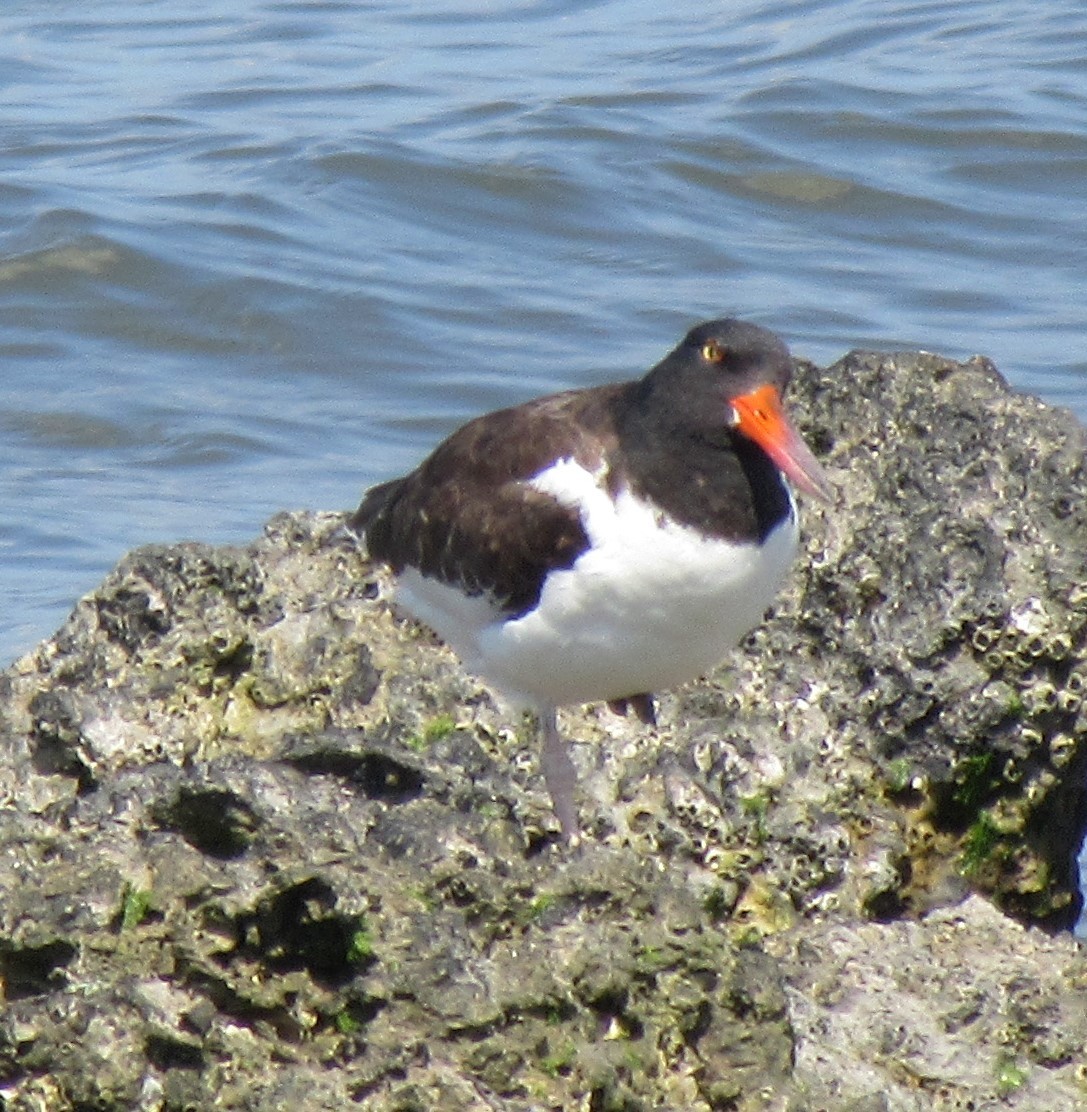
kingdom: Animalia
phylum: Chordata
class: Aves
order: Charadriiformes
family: Haematopodidae
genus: Haematopus
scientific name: Haematopus palliatus
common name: American oystercatcher
